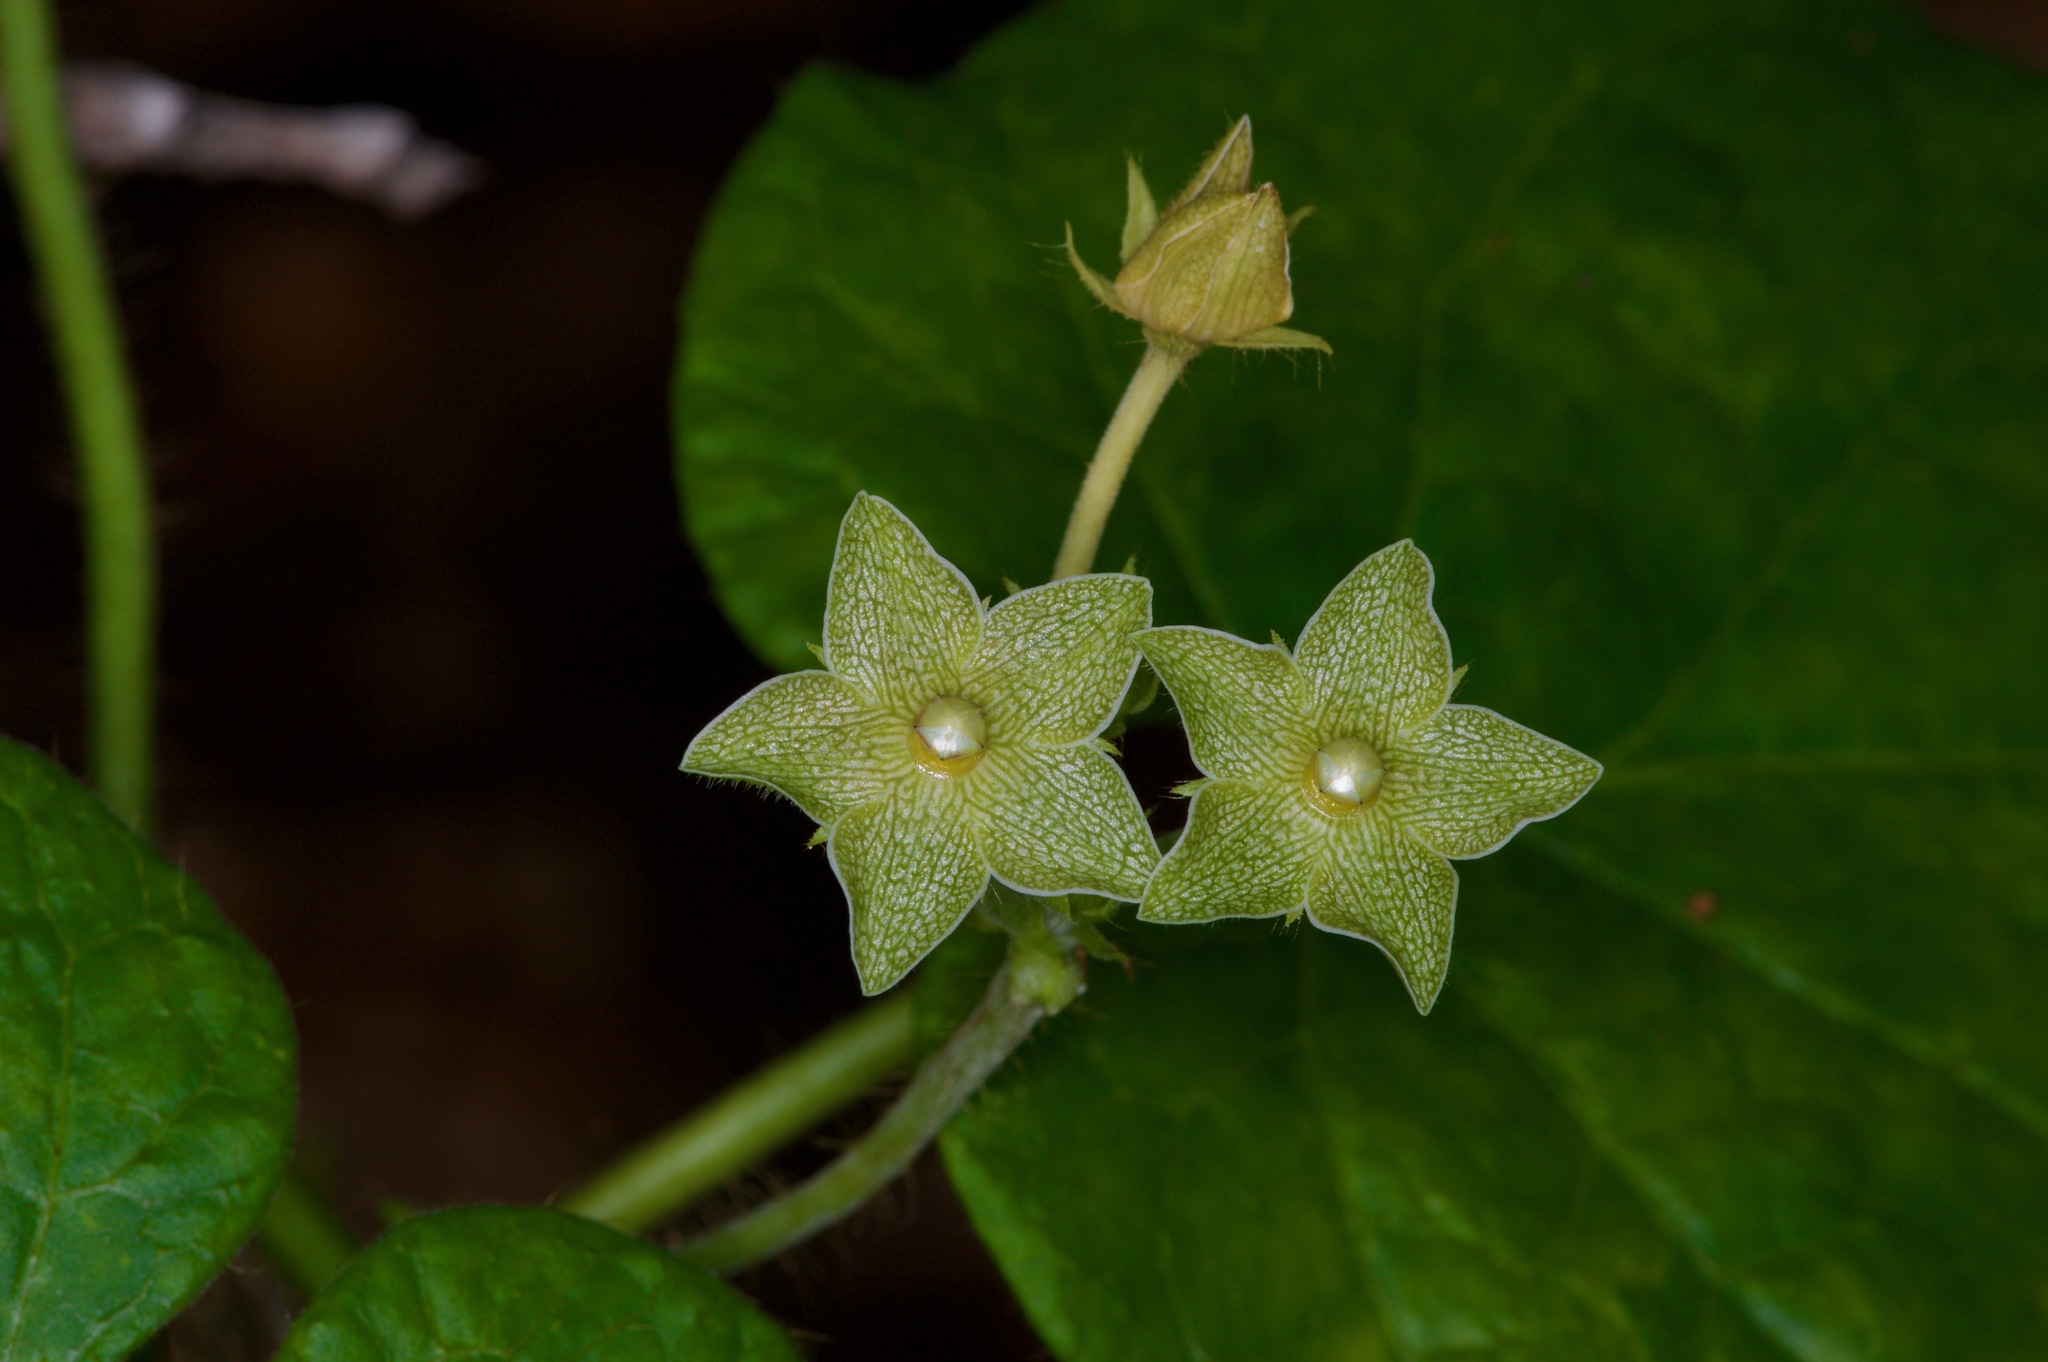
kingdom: Plantae
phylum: Tracheophyta
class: Magnoliopsida
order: Gentianales
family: Apocynaceae
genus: Dictyanthus
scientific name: Dictyanthus reticulatus
